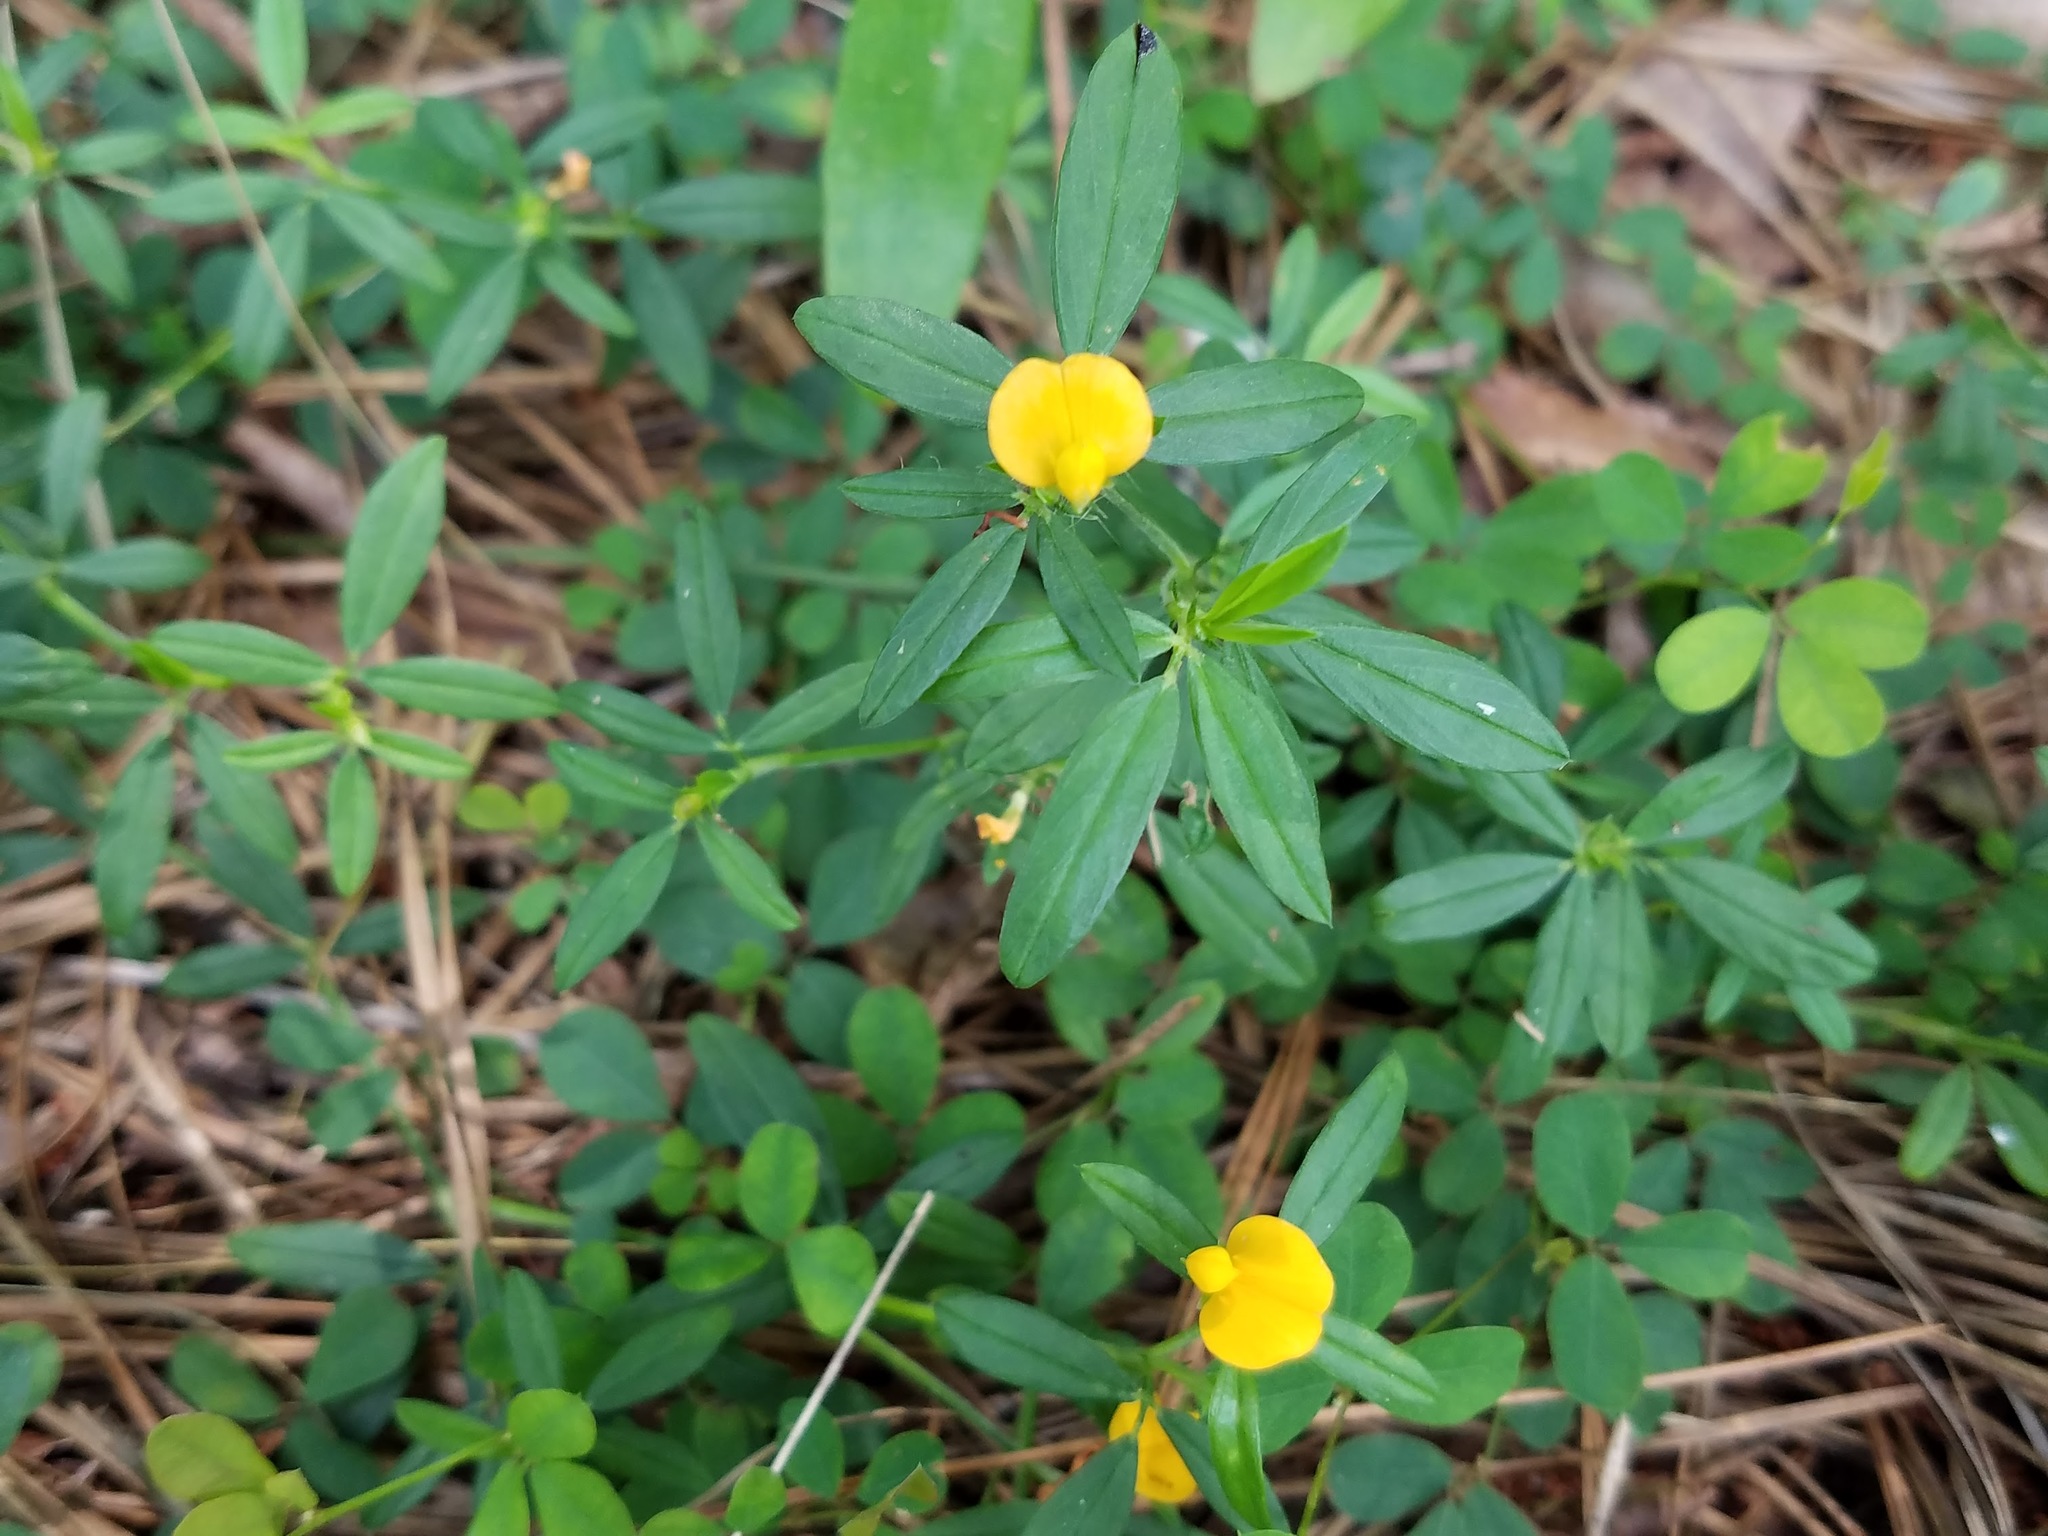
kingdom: Plantae
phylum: Tracheophyta
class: Magnoliopsida
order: Fabales
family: Fabaceae
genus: Stylosanthes
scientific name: Stylosanthes biflora
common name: Two-flower pencil-flower
